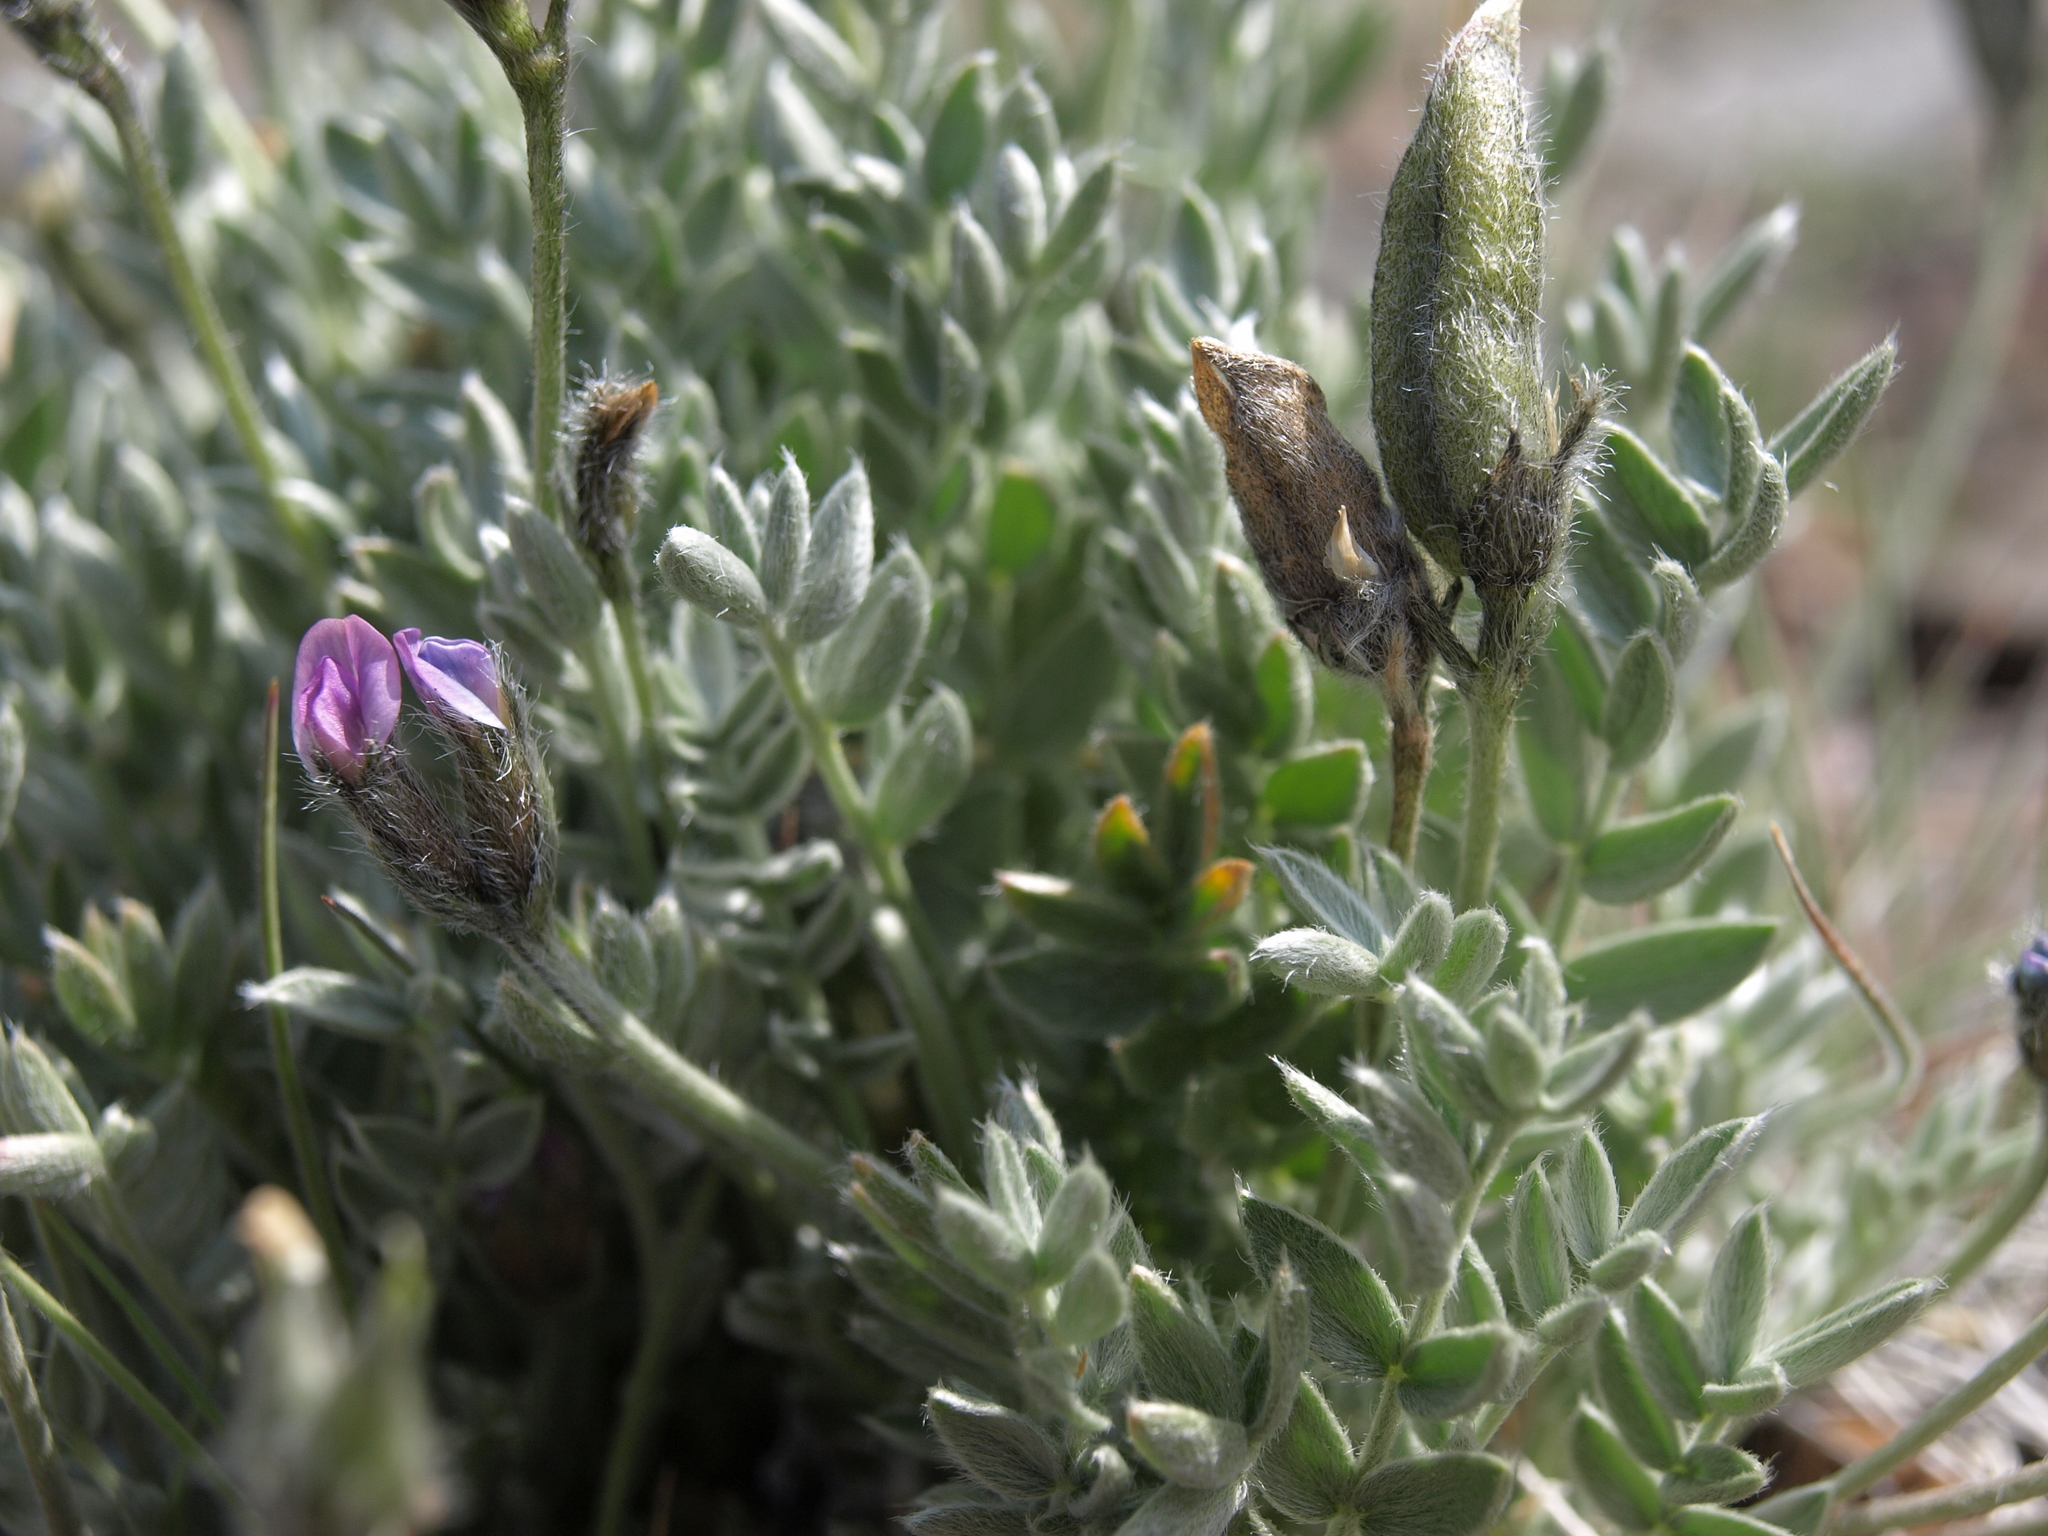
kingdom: Plantae
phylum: Tracheophyta
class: Magnoliopsida
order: Fabales
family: Fabaceae
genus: Oxytropis
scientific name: Oxytropis parryi
